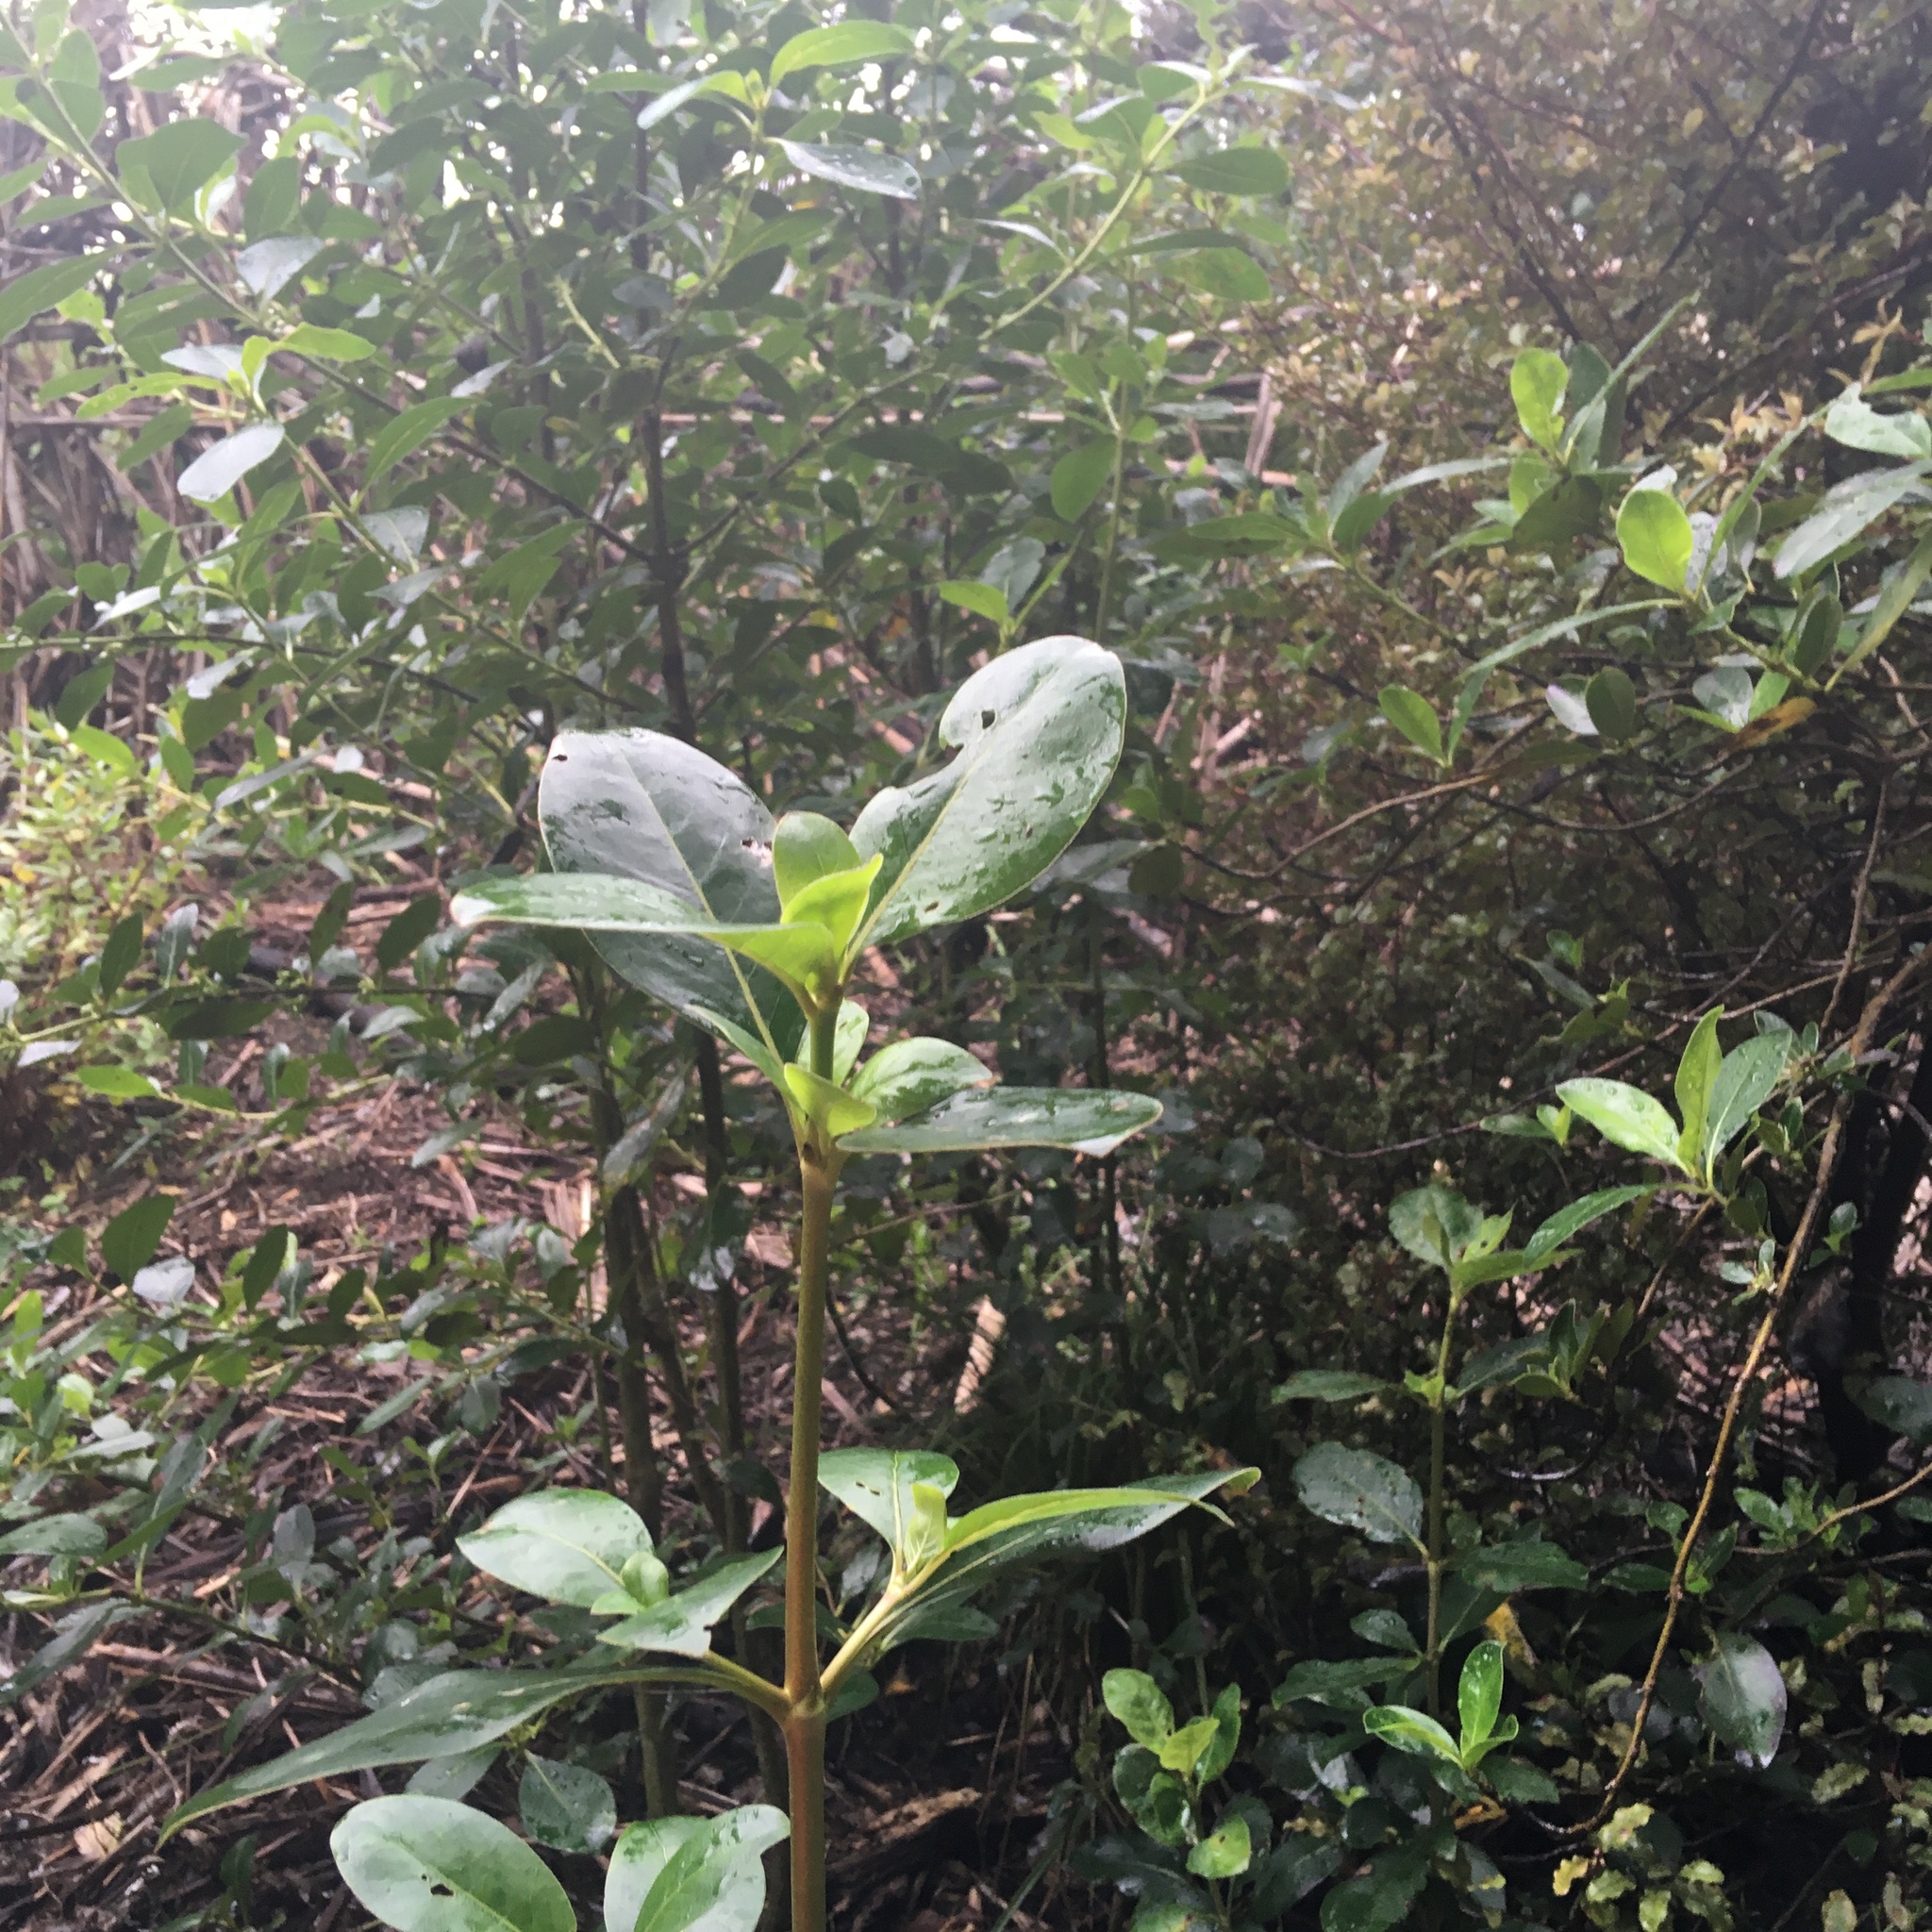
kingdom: Plantae
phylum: Tracheophyta
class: Magnoliopsida
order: Gentianales
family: Rubiaceae
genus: Coprosma
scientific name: Coprosma robusta
